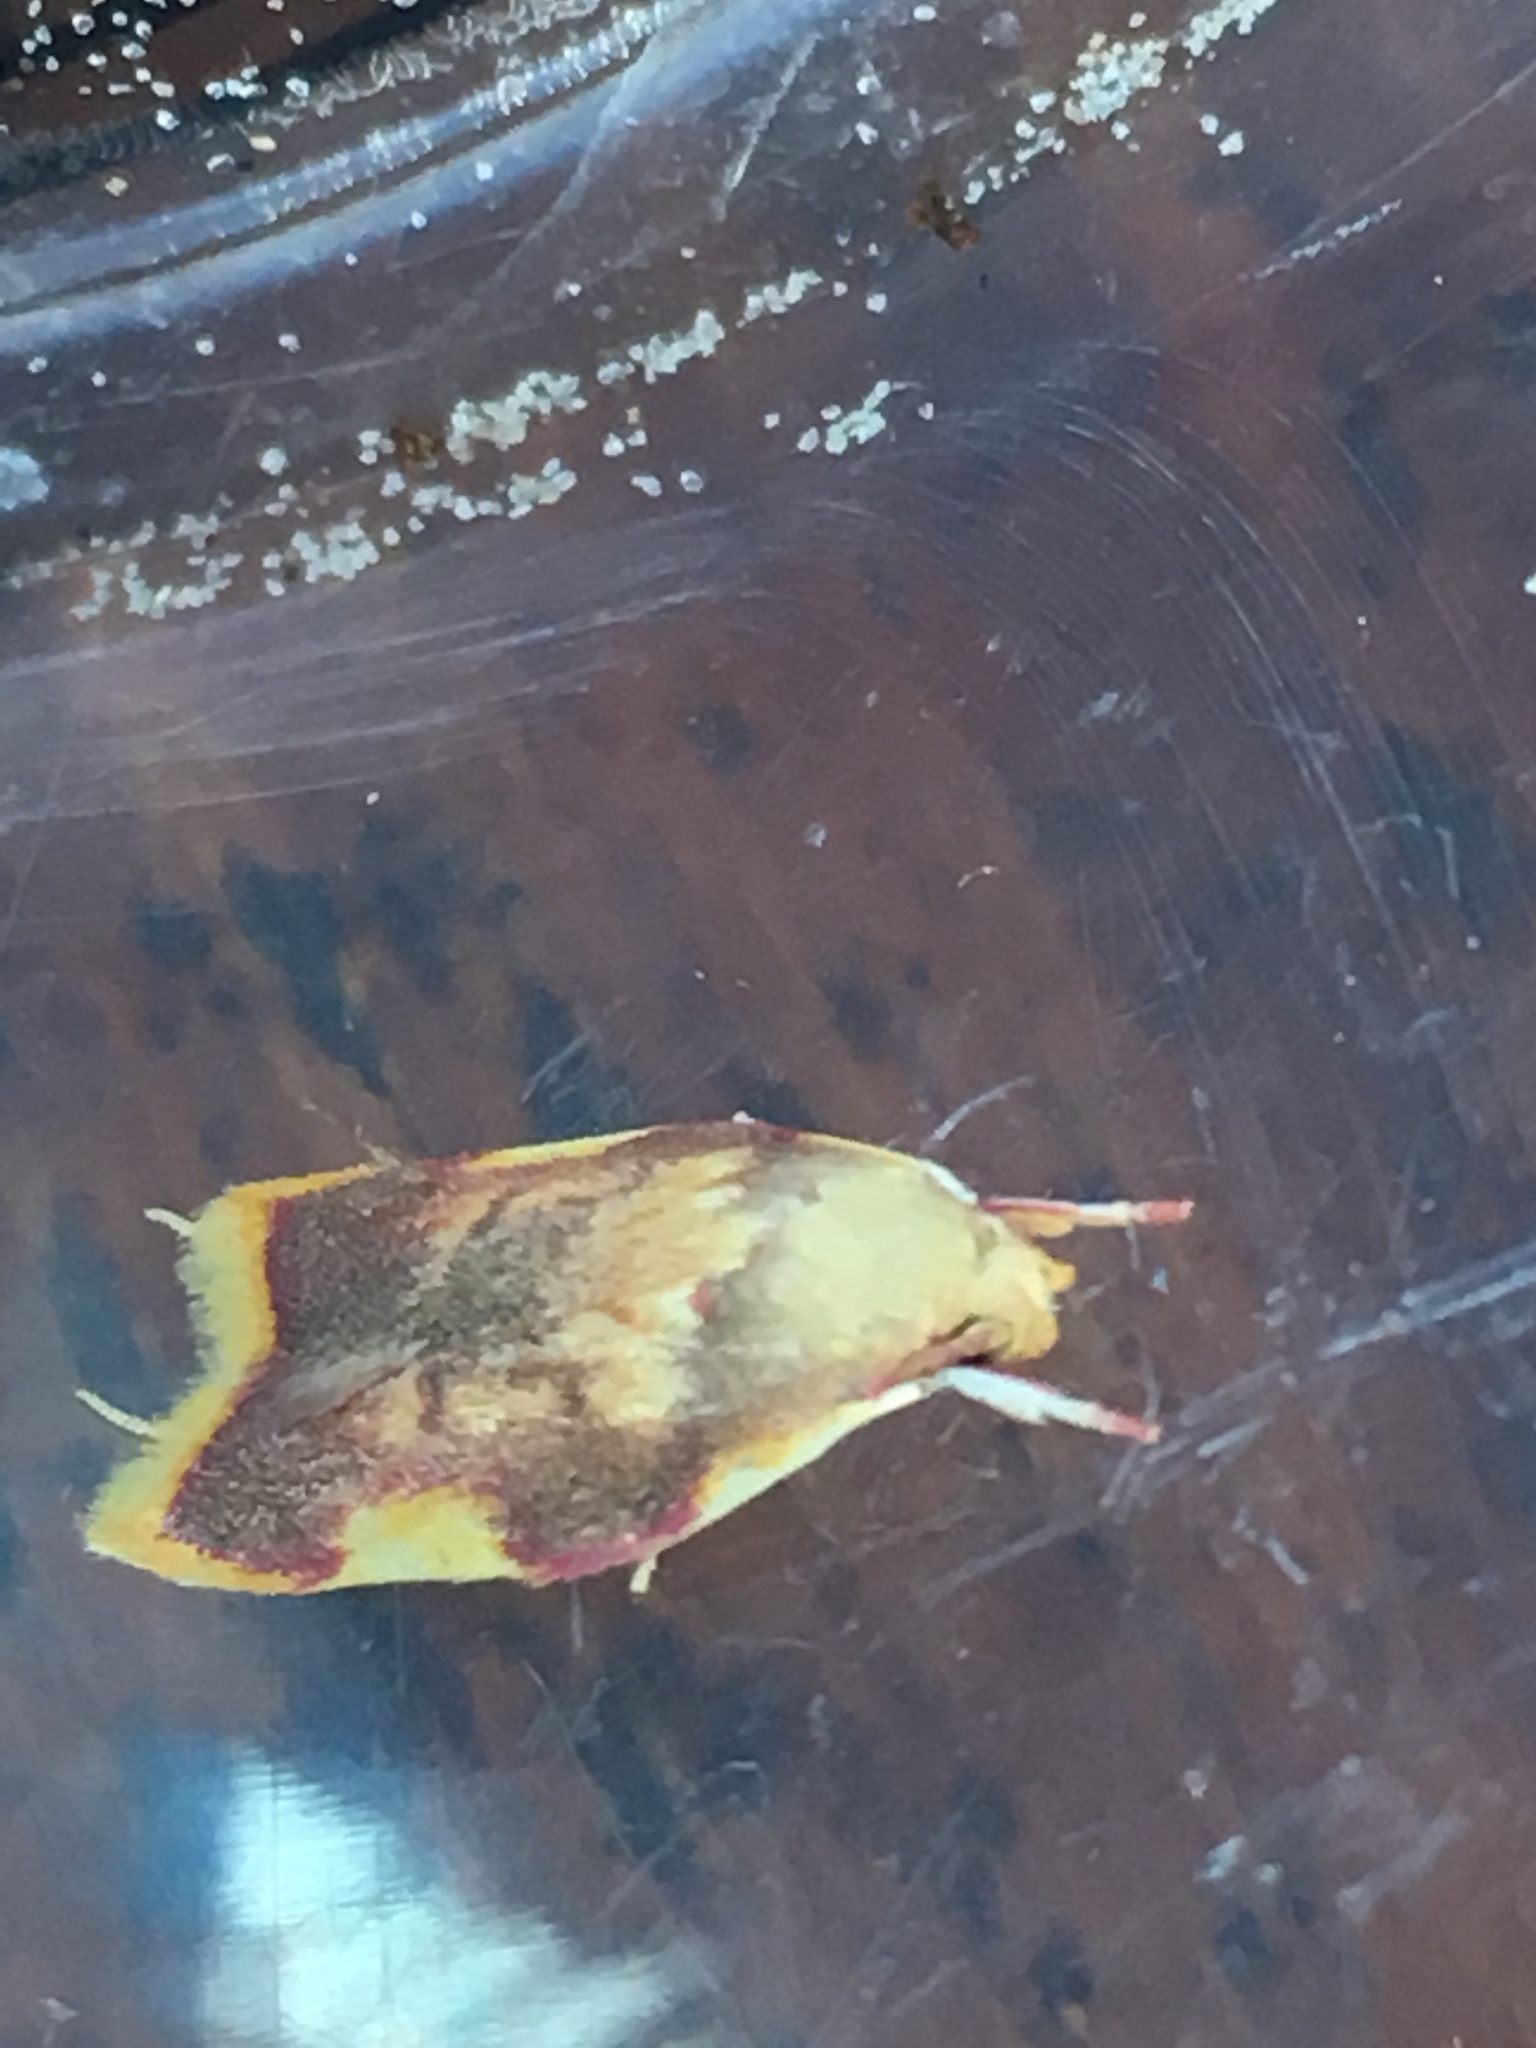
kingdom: Animalia
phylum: Arthropoda
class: Insecta
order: Lepidoptera
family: Peleopodidae
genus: Carcina
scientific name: Carcina quercana
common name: Moth
